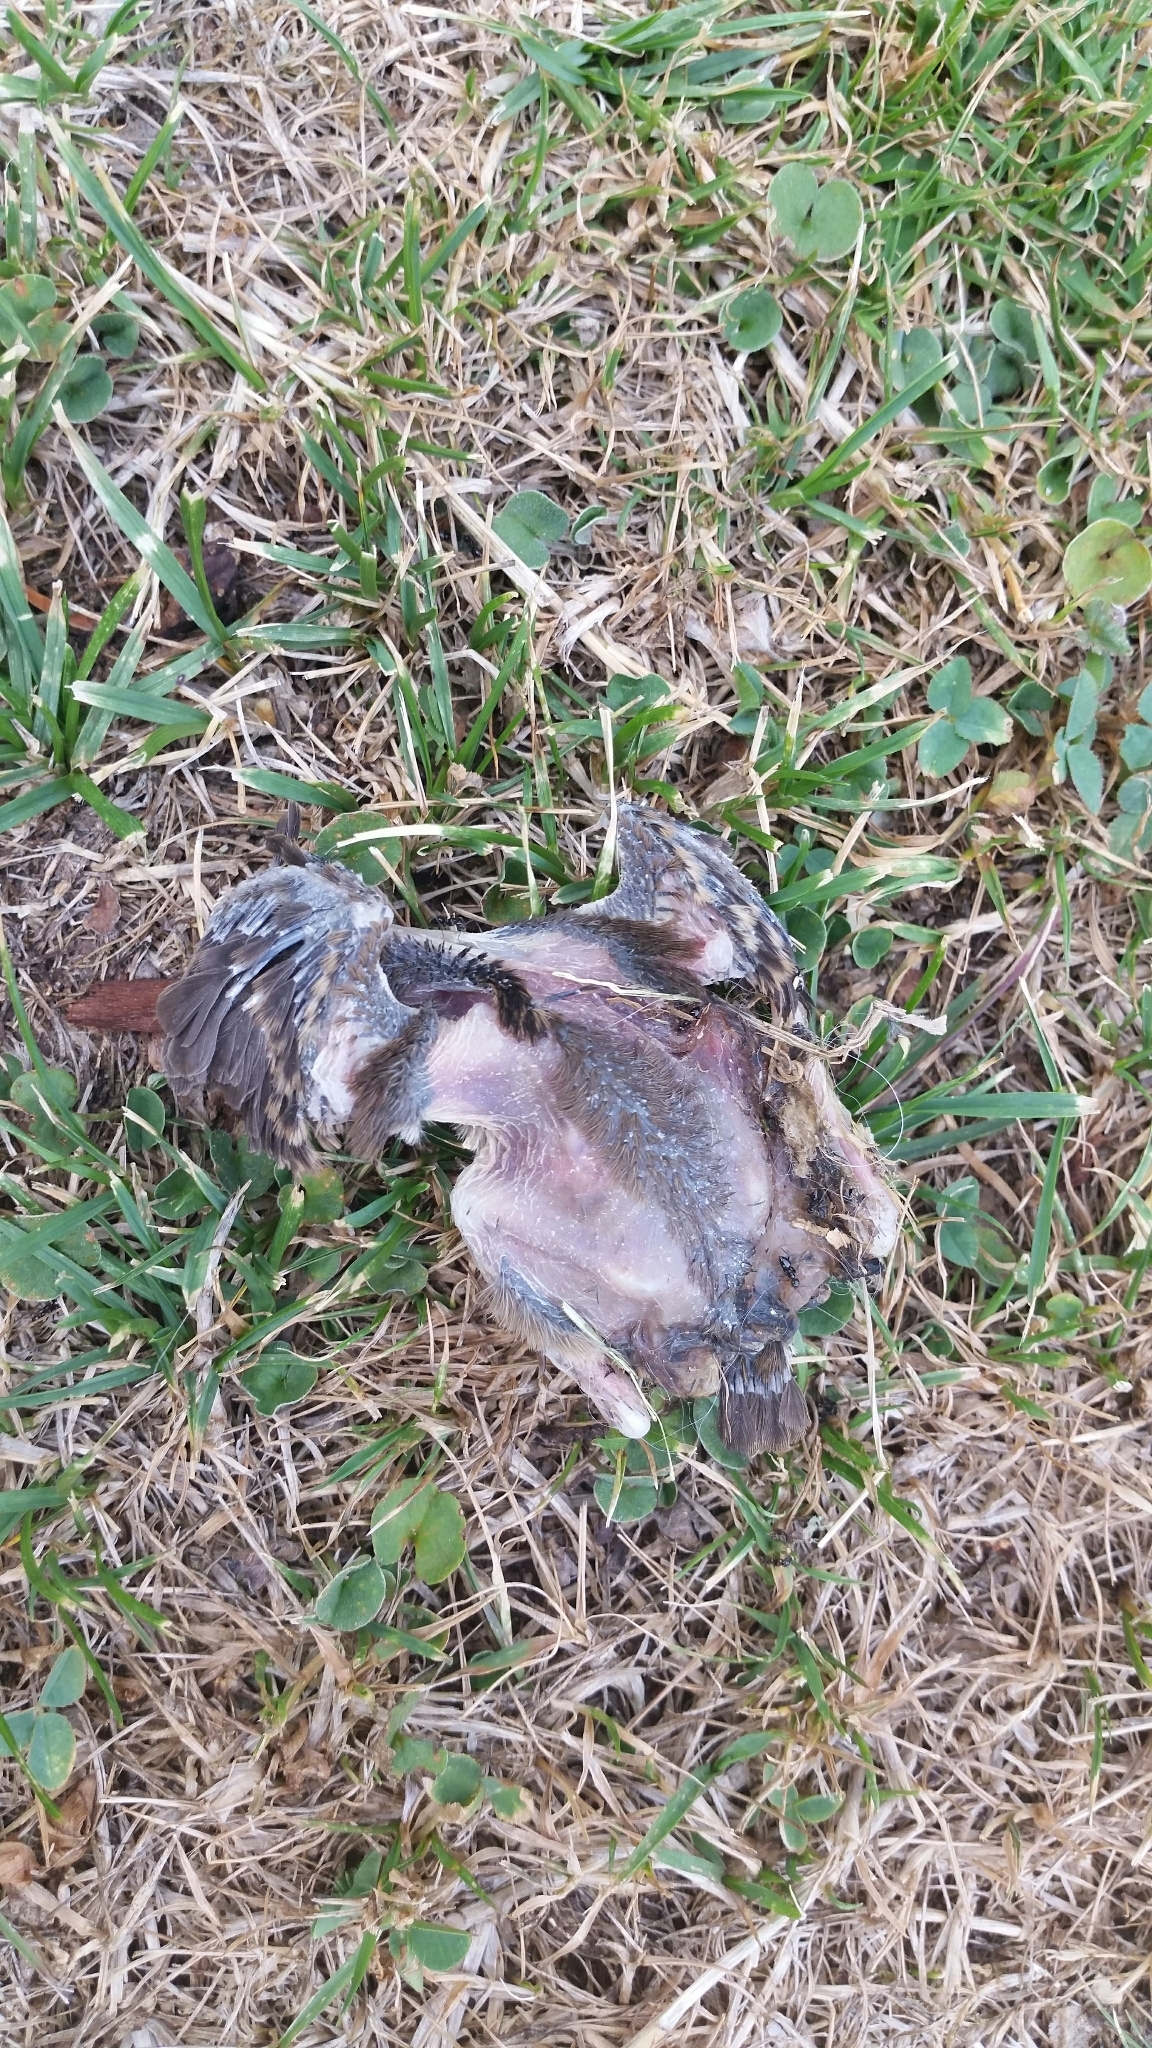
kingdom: Animalia
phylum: Chordata
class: Aves
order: Passeriformes
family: Passeridae
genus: Passer
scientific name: Passer domesticus
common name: House sparrow
